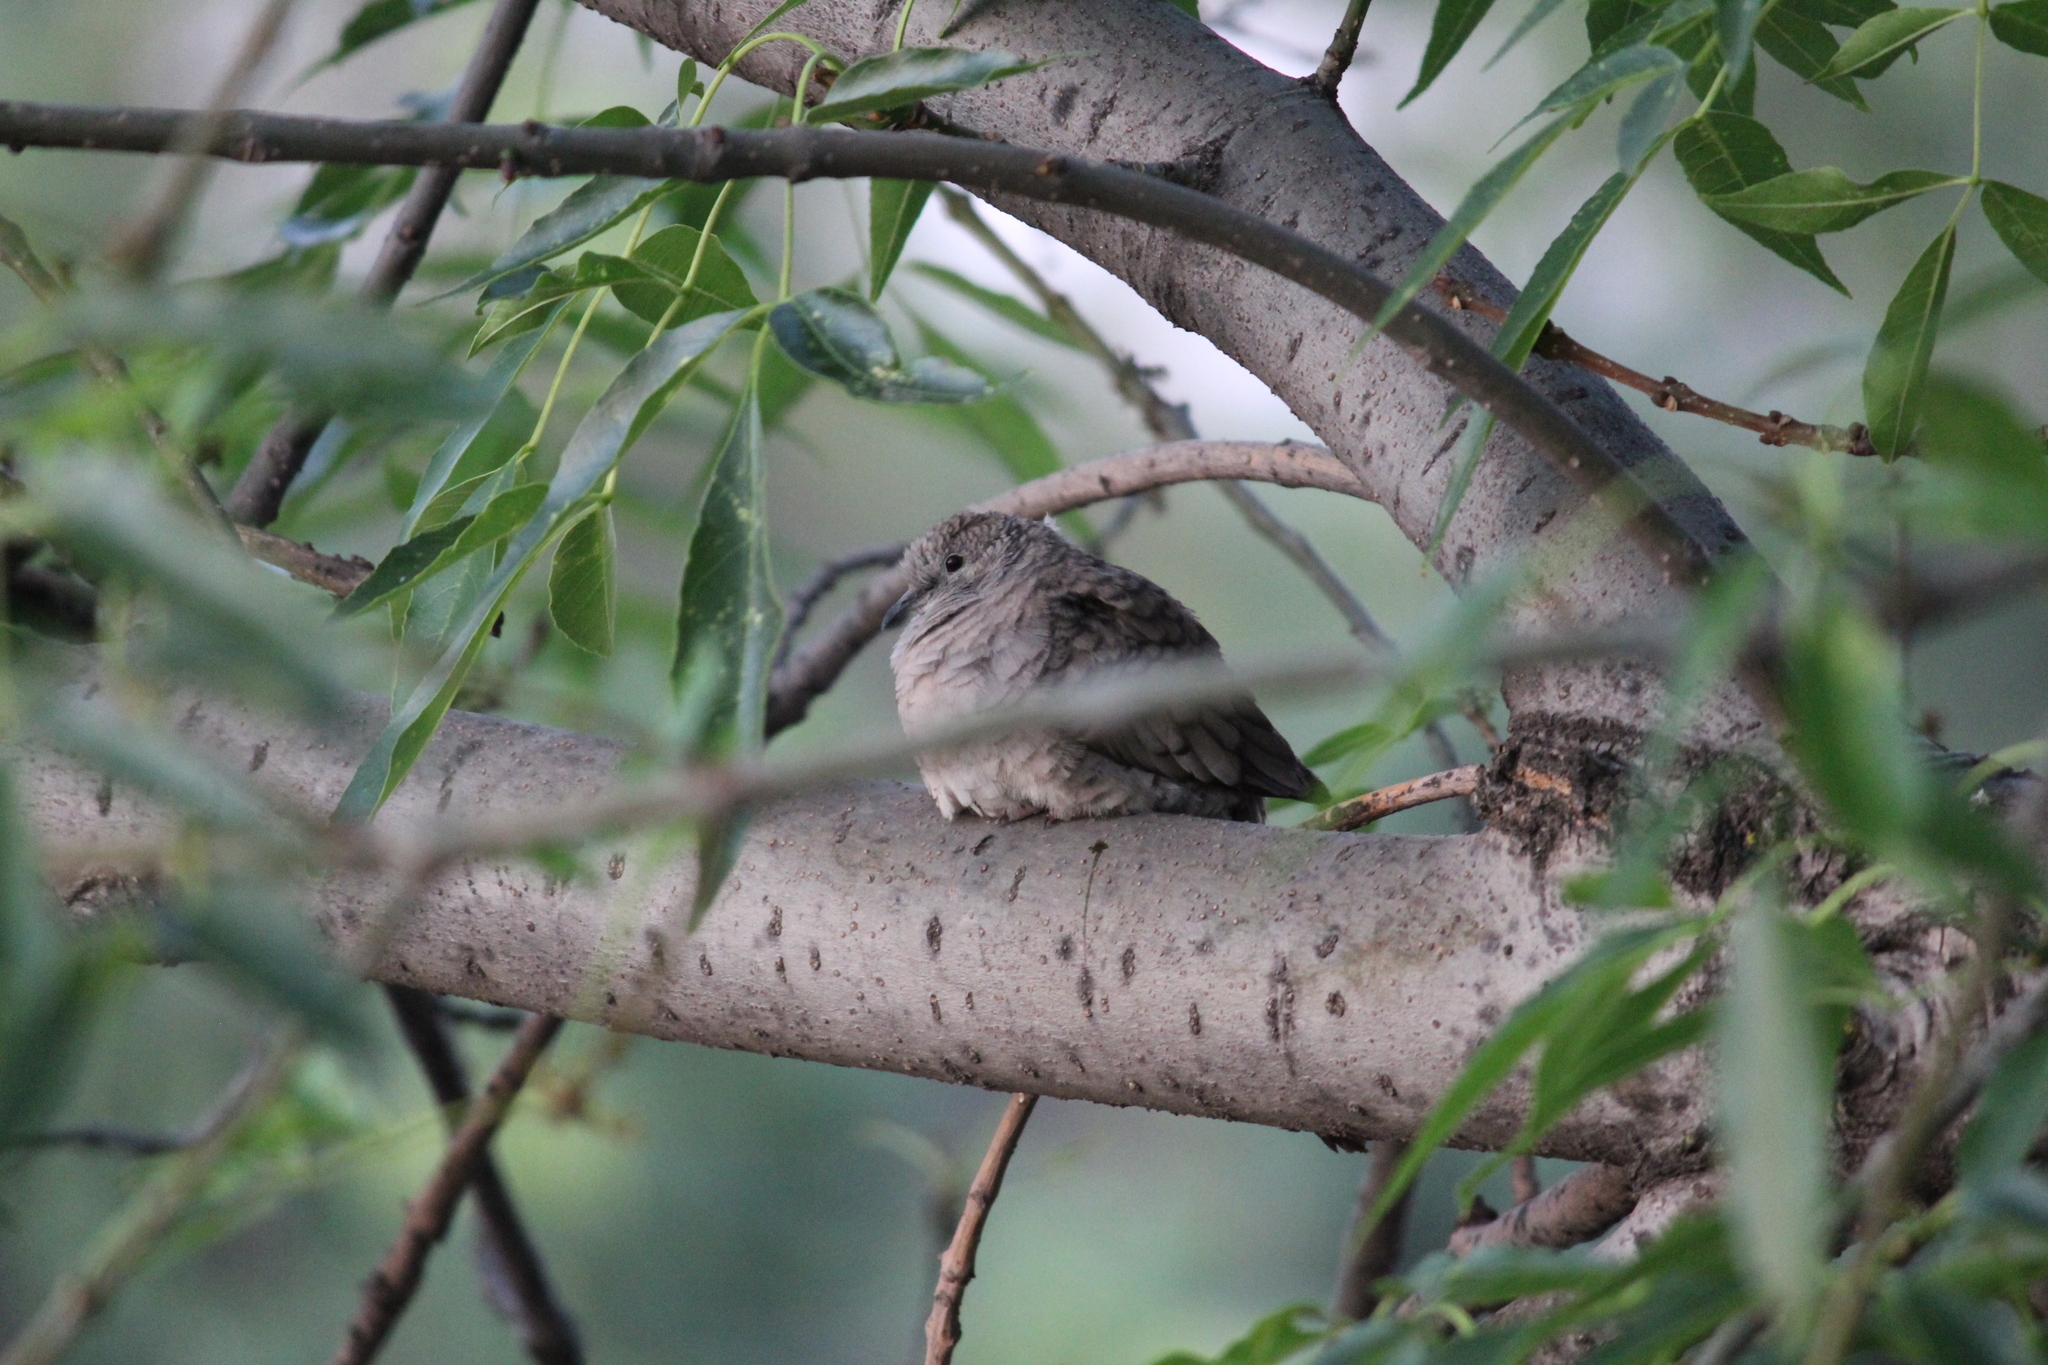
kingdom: Animalia
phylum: Chordata
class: Aves
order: Columbiformes
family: Columbidae
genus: Columbina
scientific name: Columbina inca
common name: Inca dove
